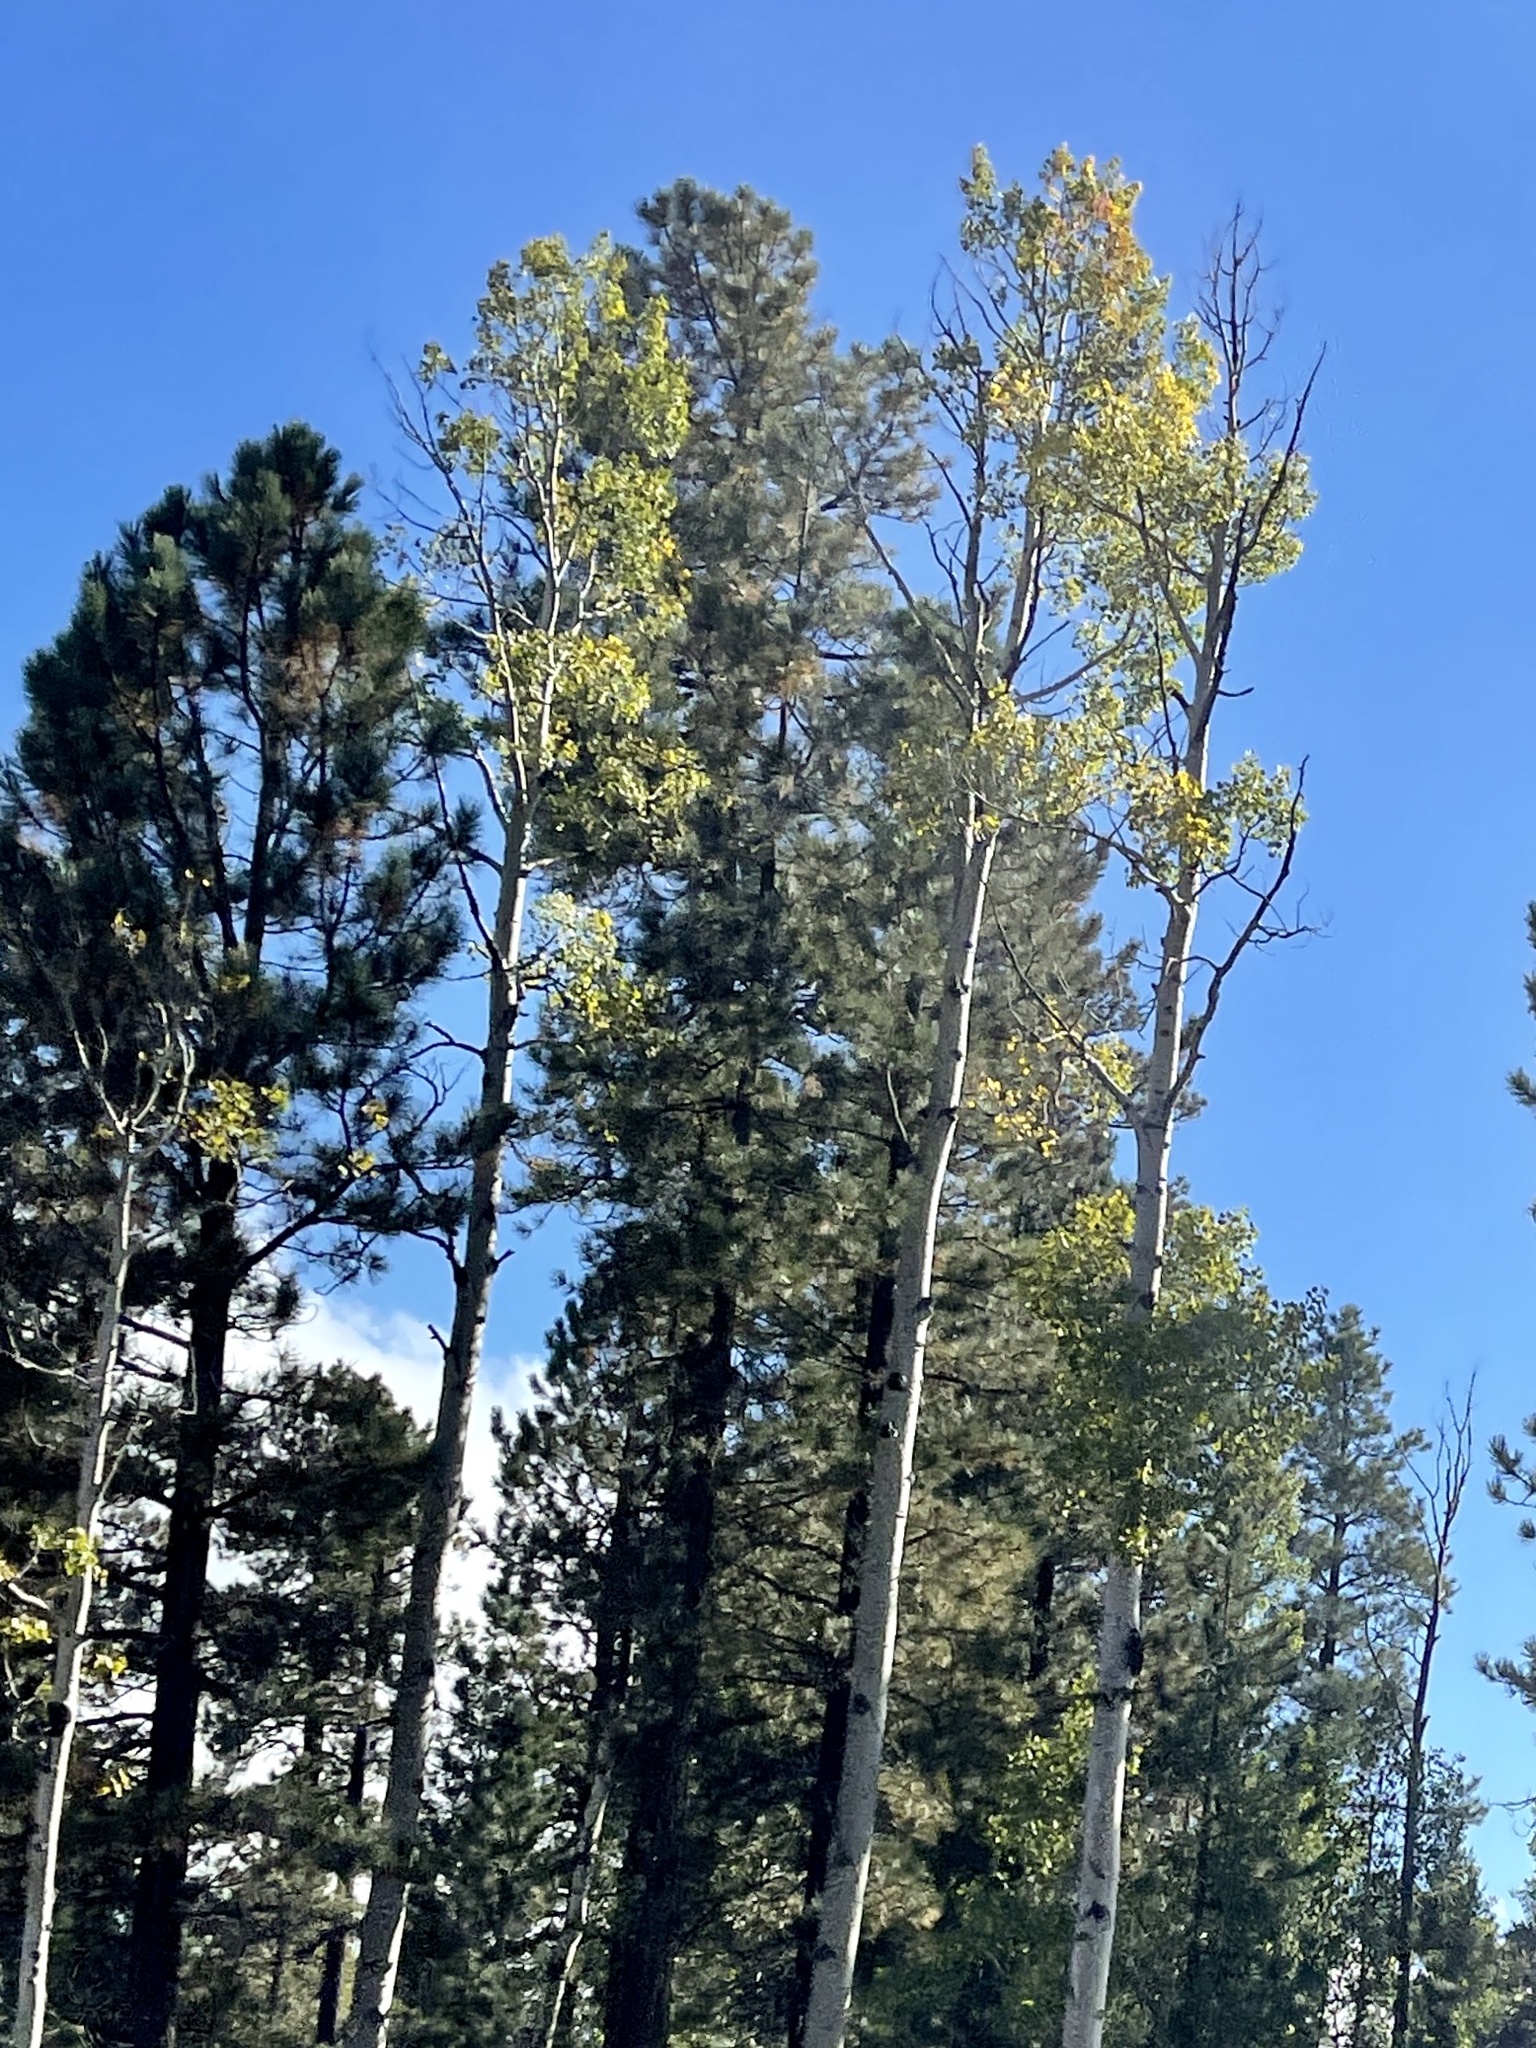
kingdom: Plantae
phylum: Tracheophyta
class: Magnoliopsida
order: Malpighiales
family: Salicaceae
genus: Populus
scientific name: Populus tremuloides
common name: Quaking aspen
